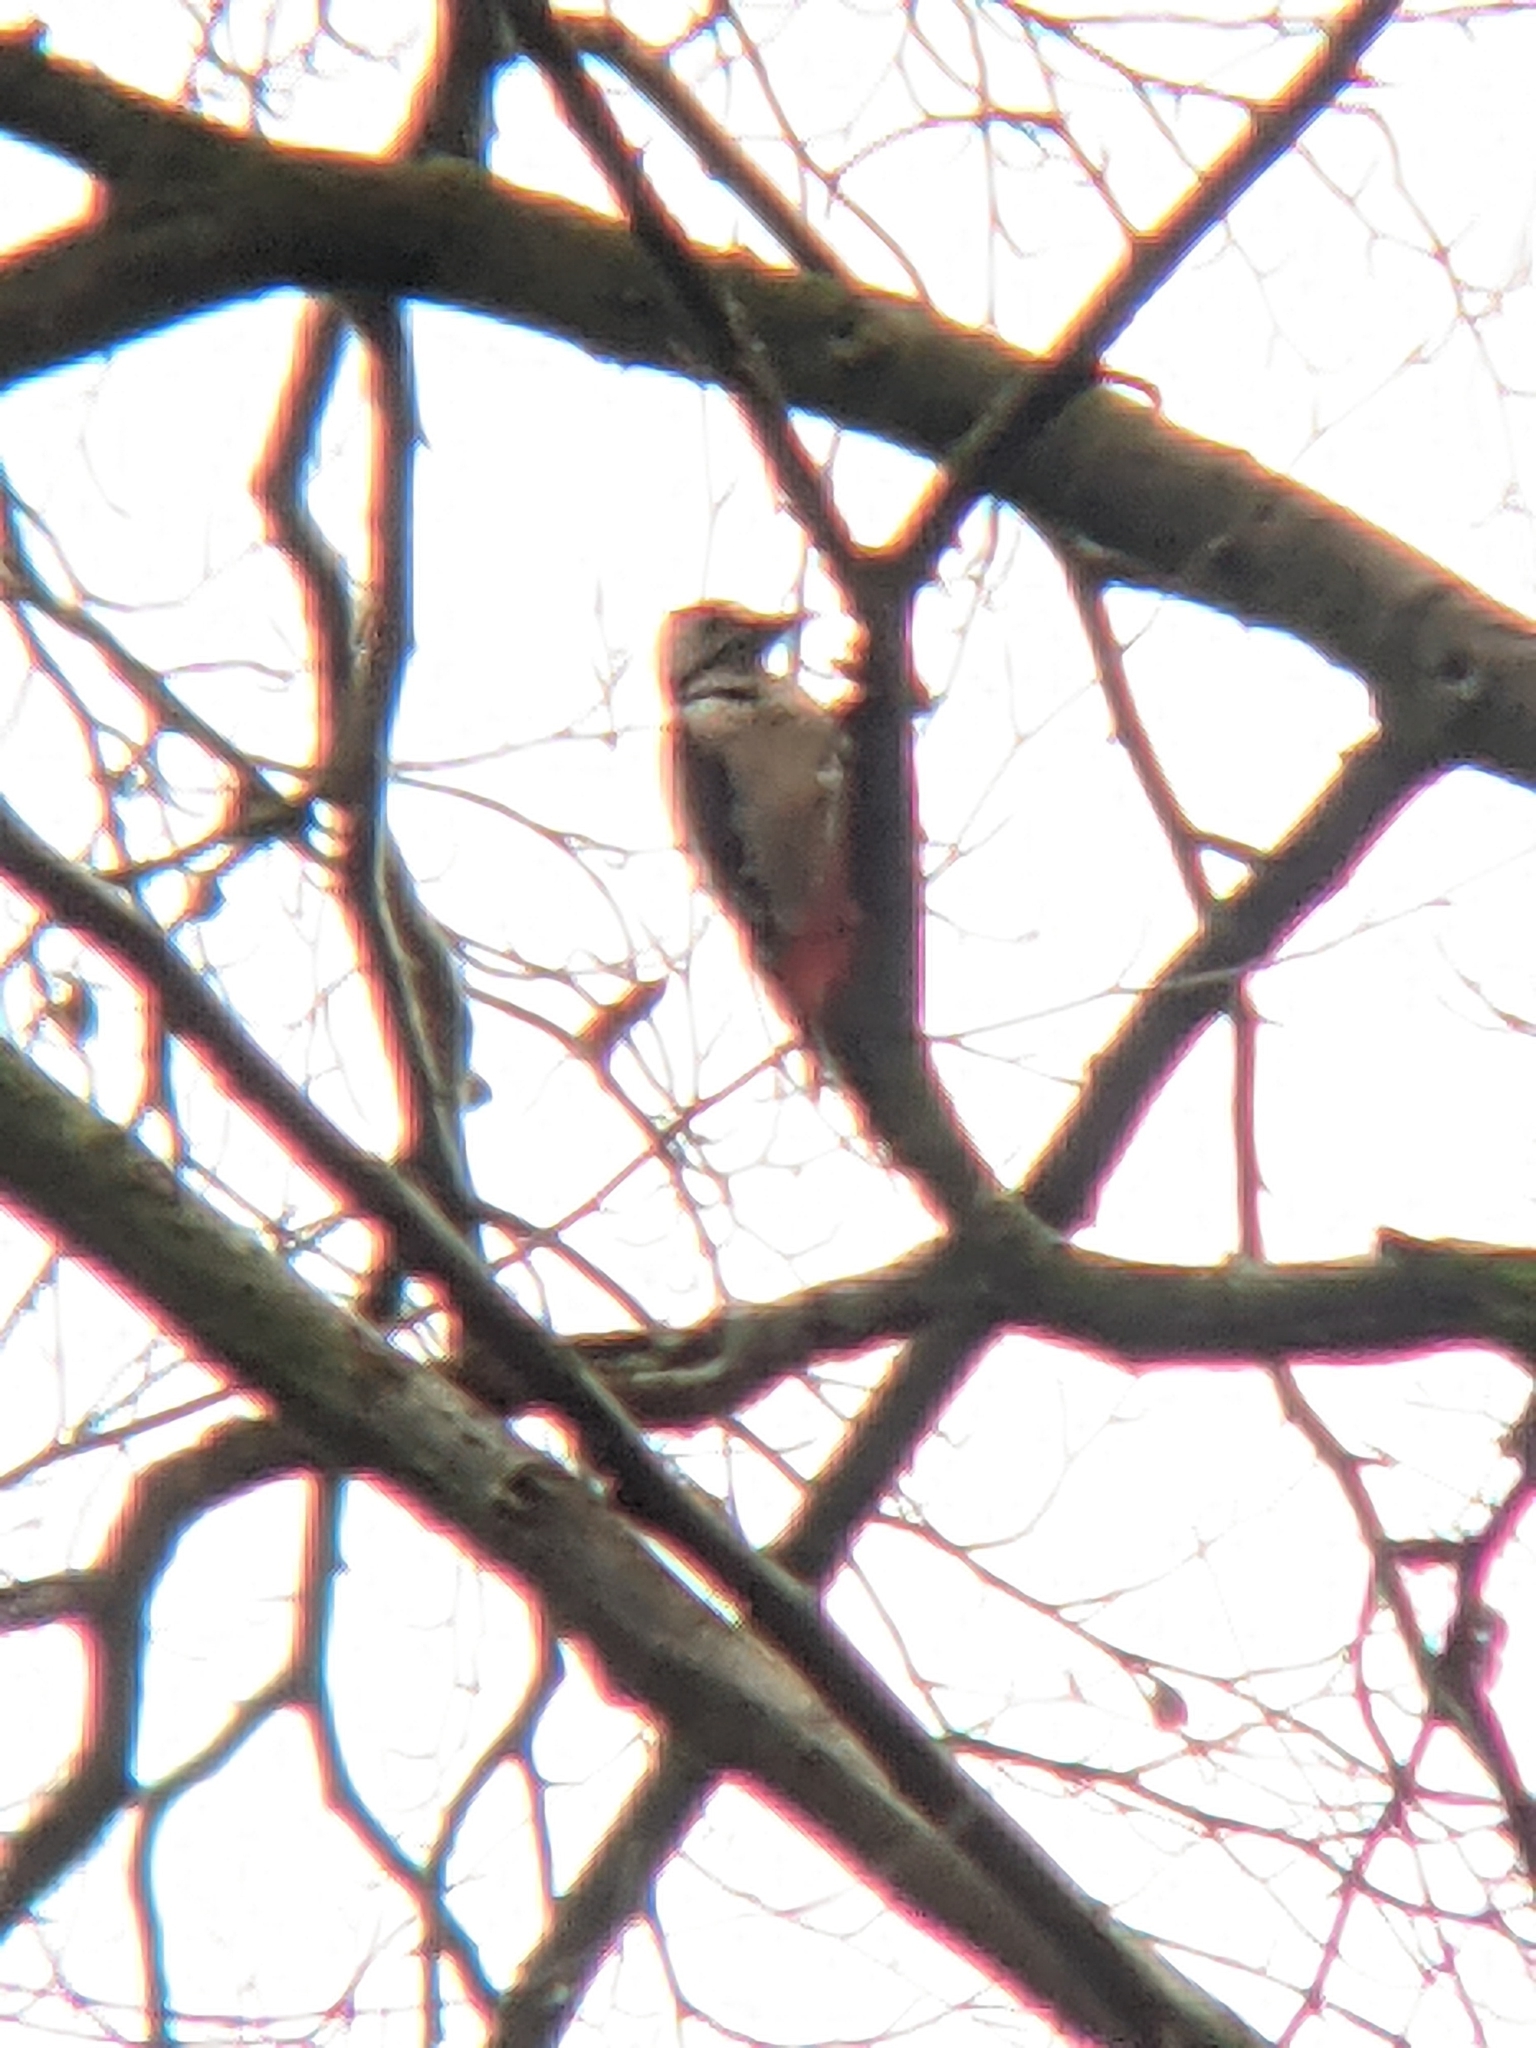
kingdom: Animalia
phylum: Chordata
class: Aves
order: Piciformes
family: Picidae
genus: Dendrocopos
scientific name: Dendrocopos major
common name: Great spotted woodpecker
